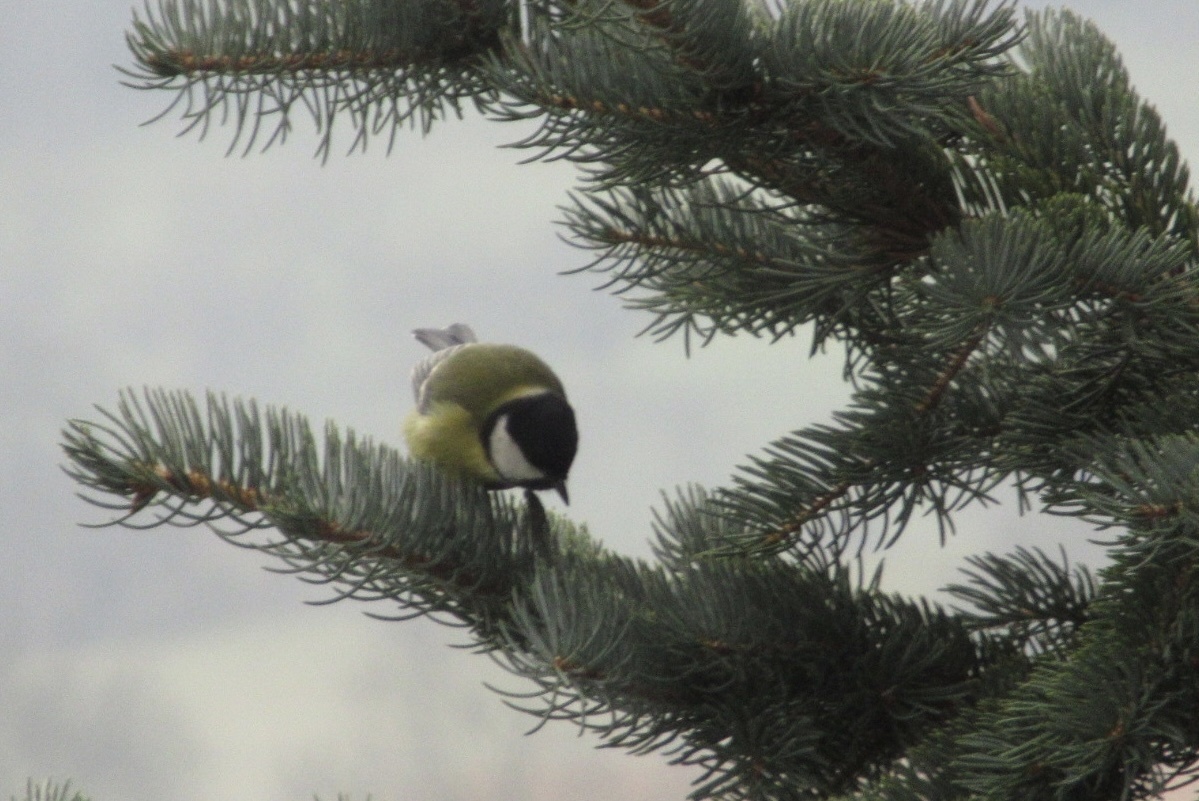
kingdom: Animalia
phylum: Chordata
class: Aves
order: Passeriformes
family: Paridae
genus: Parus
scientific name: Parus major
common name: Great tit
